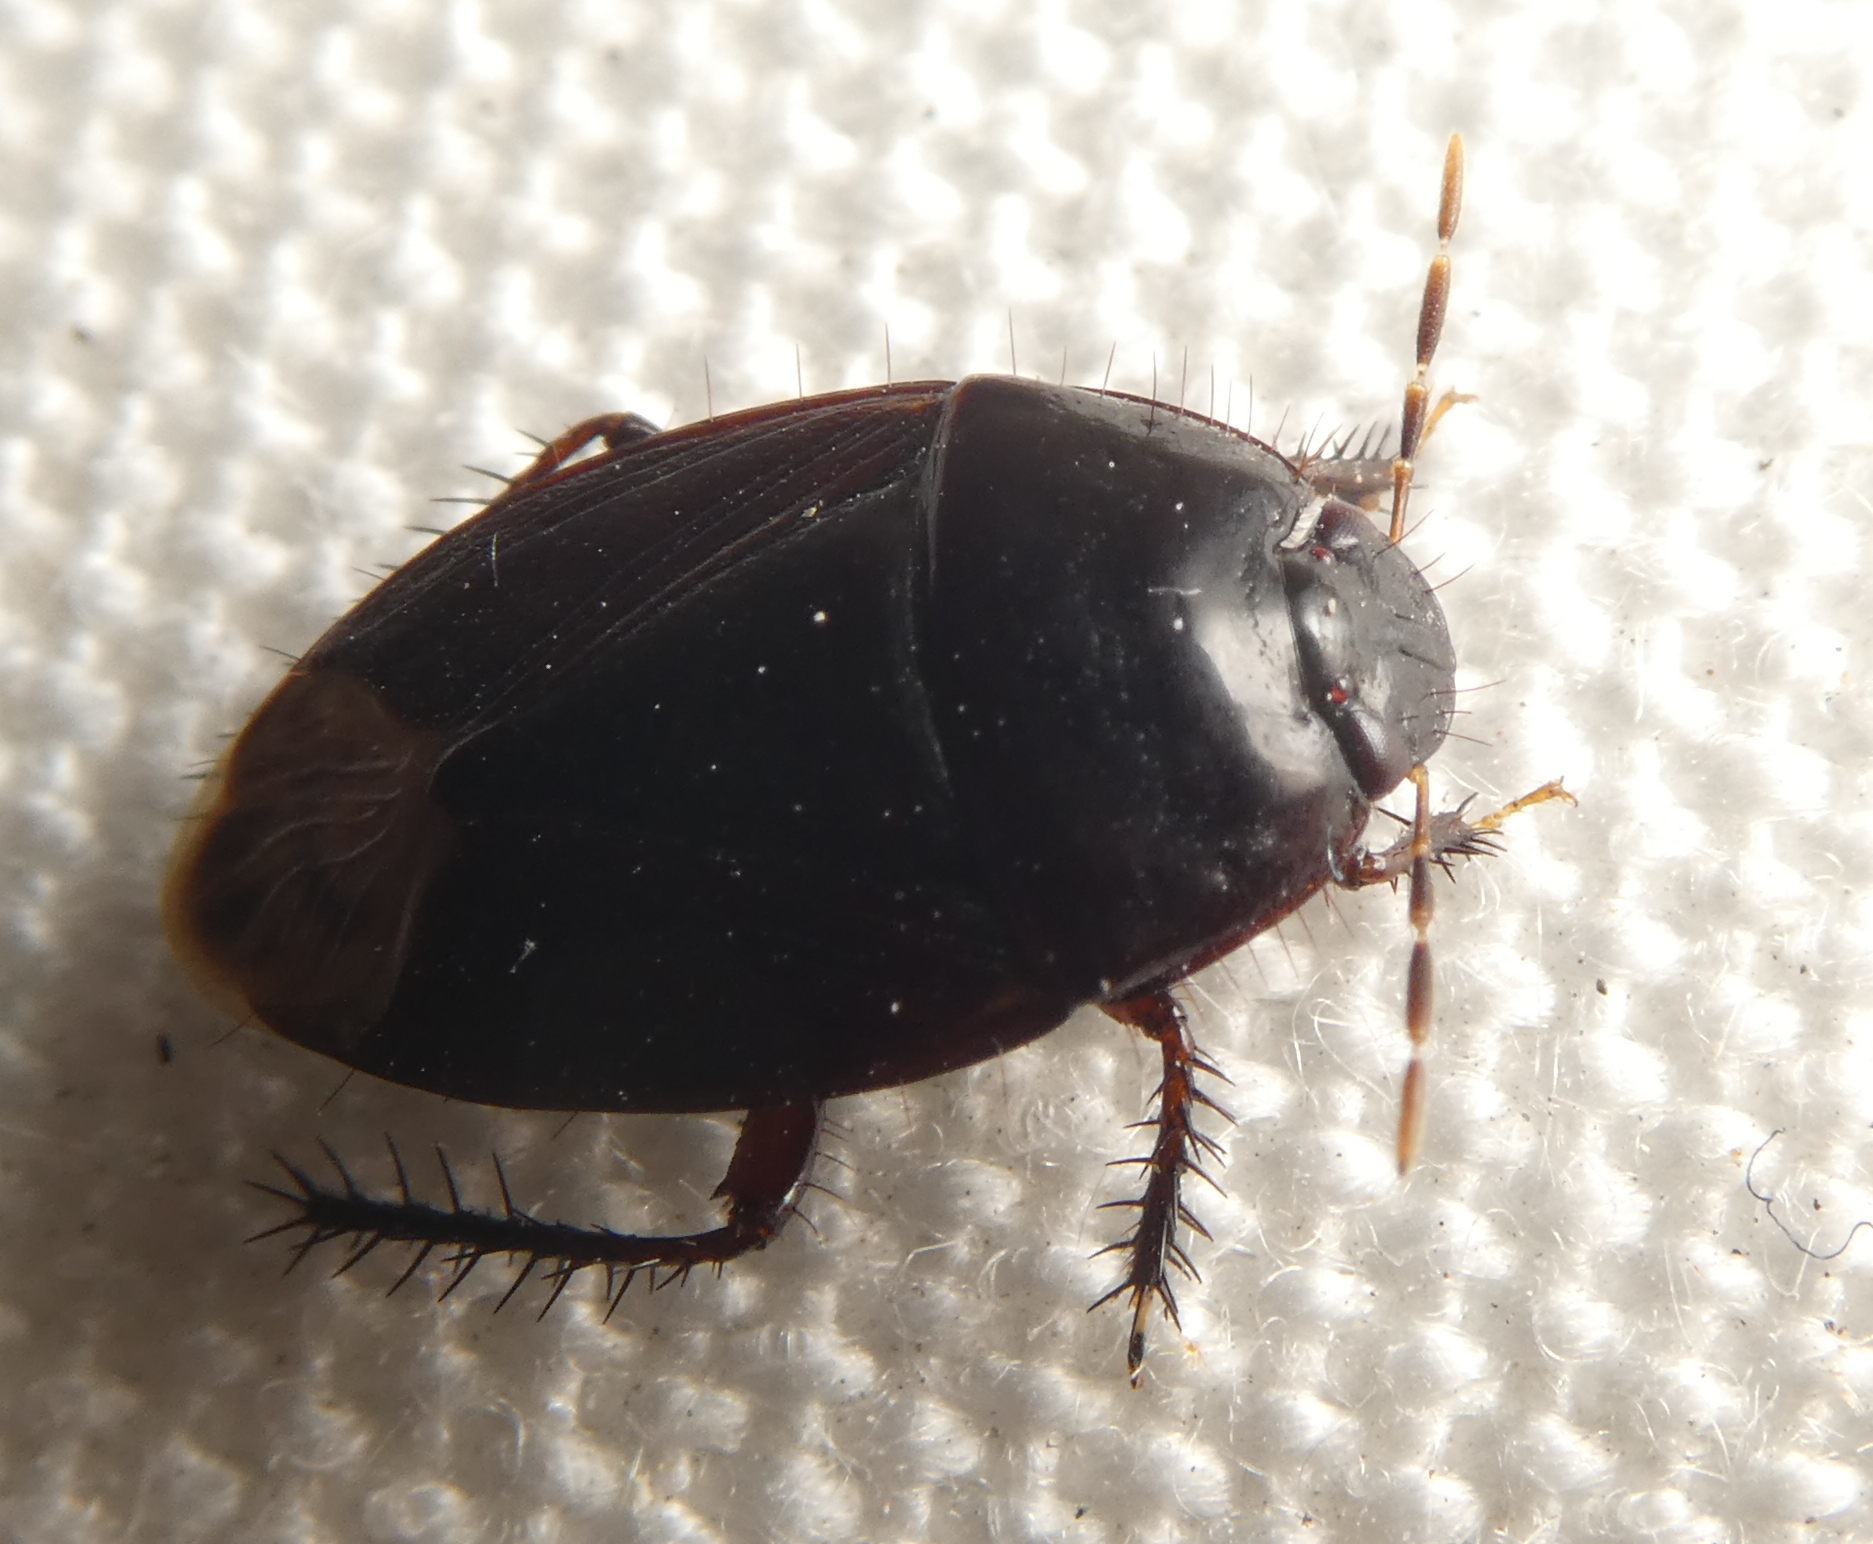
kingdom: Animalia
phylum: Arthropoda
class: Insecta
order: Hemiptera
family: Cydnidae
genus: Macroscytus
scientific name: Macroscytus brunneus
